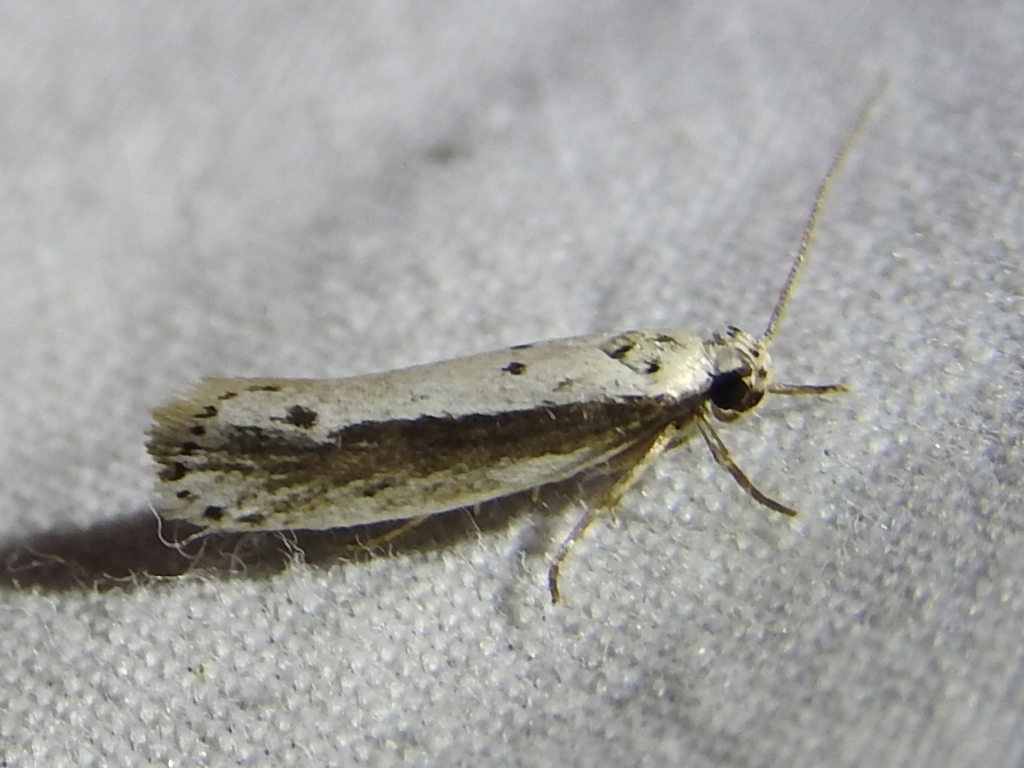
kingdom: Animalia
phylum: Arthropoda
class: Insecta
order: Lepidoptera
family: Ethmiidae
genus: Ethmia
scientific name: Ethmia mirusella
